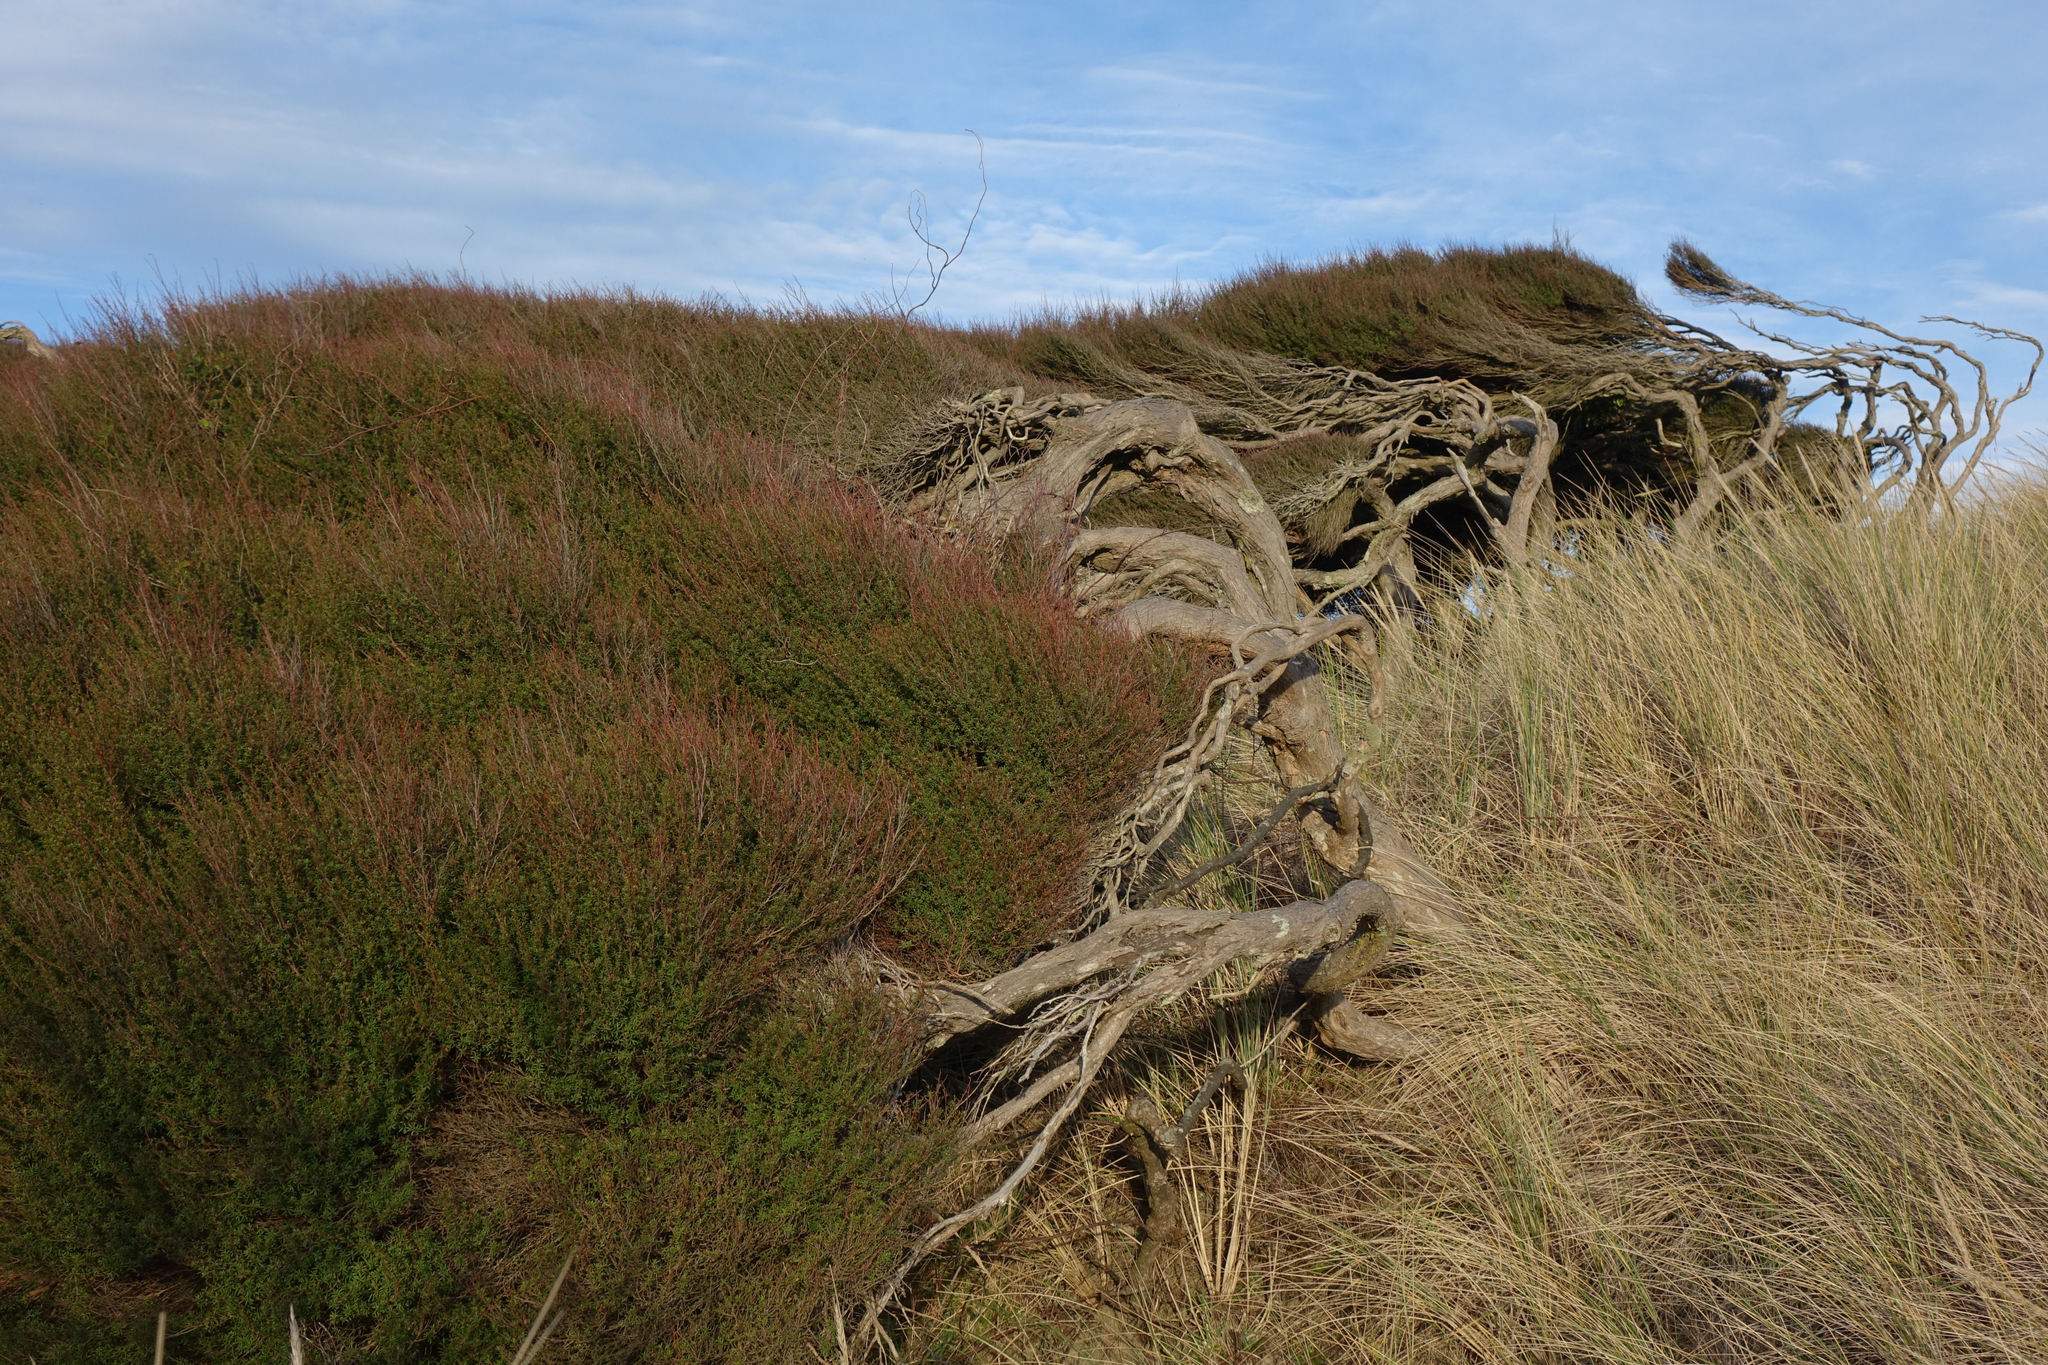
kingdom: Plantae
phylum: Tracheophyta
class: Magnoliopsida
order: Myrtales
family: Myrtaceae
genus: Kunzea
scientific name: Kunzea robusta
